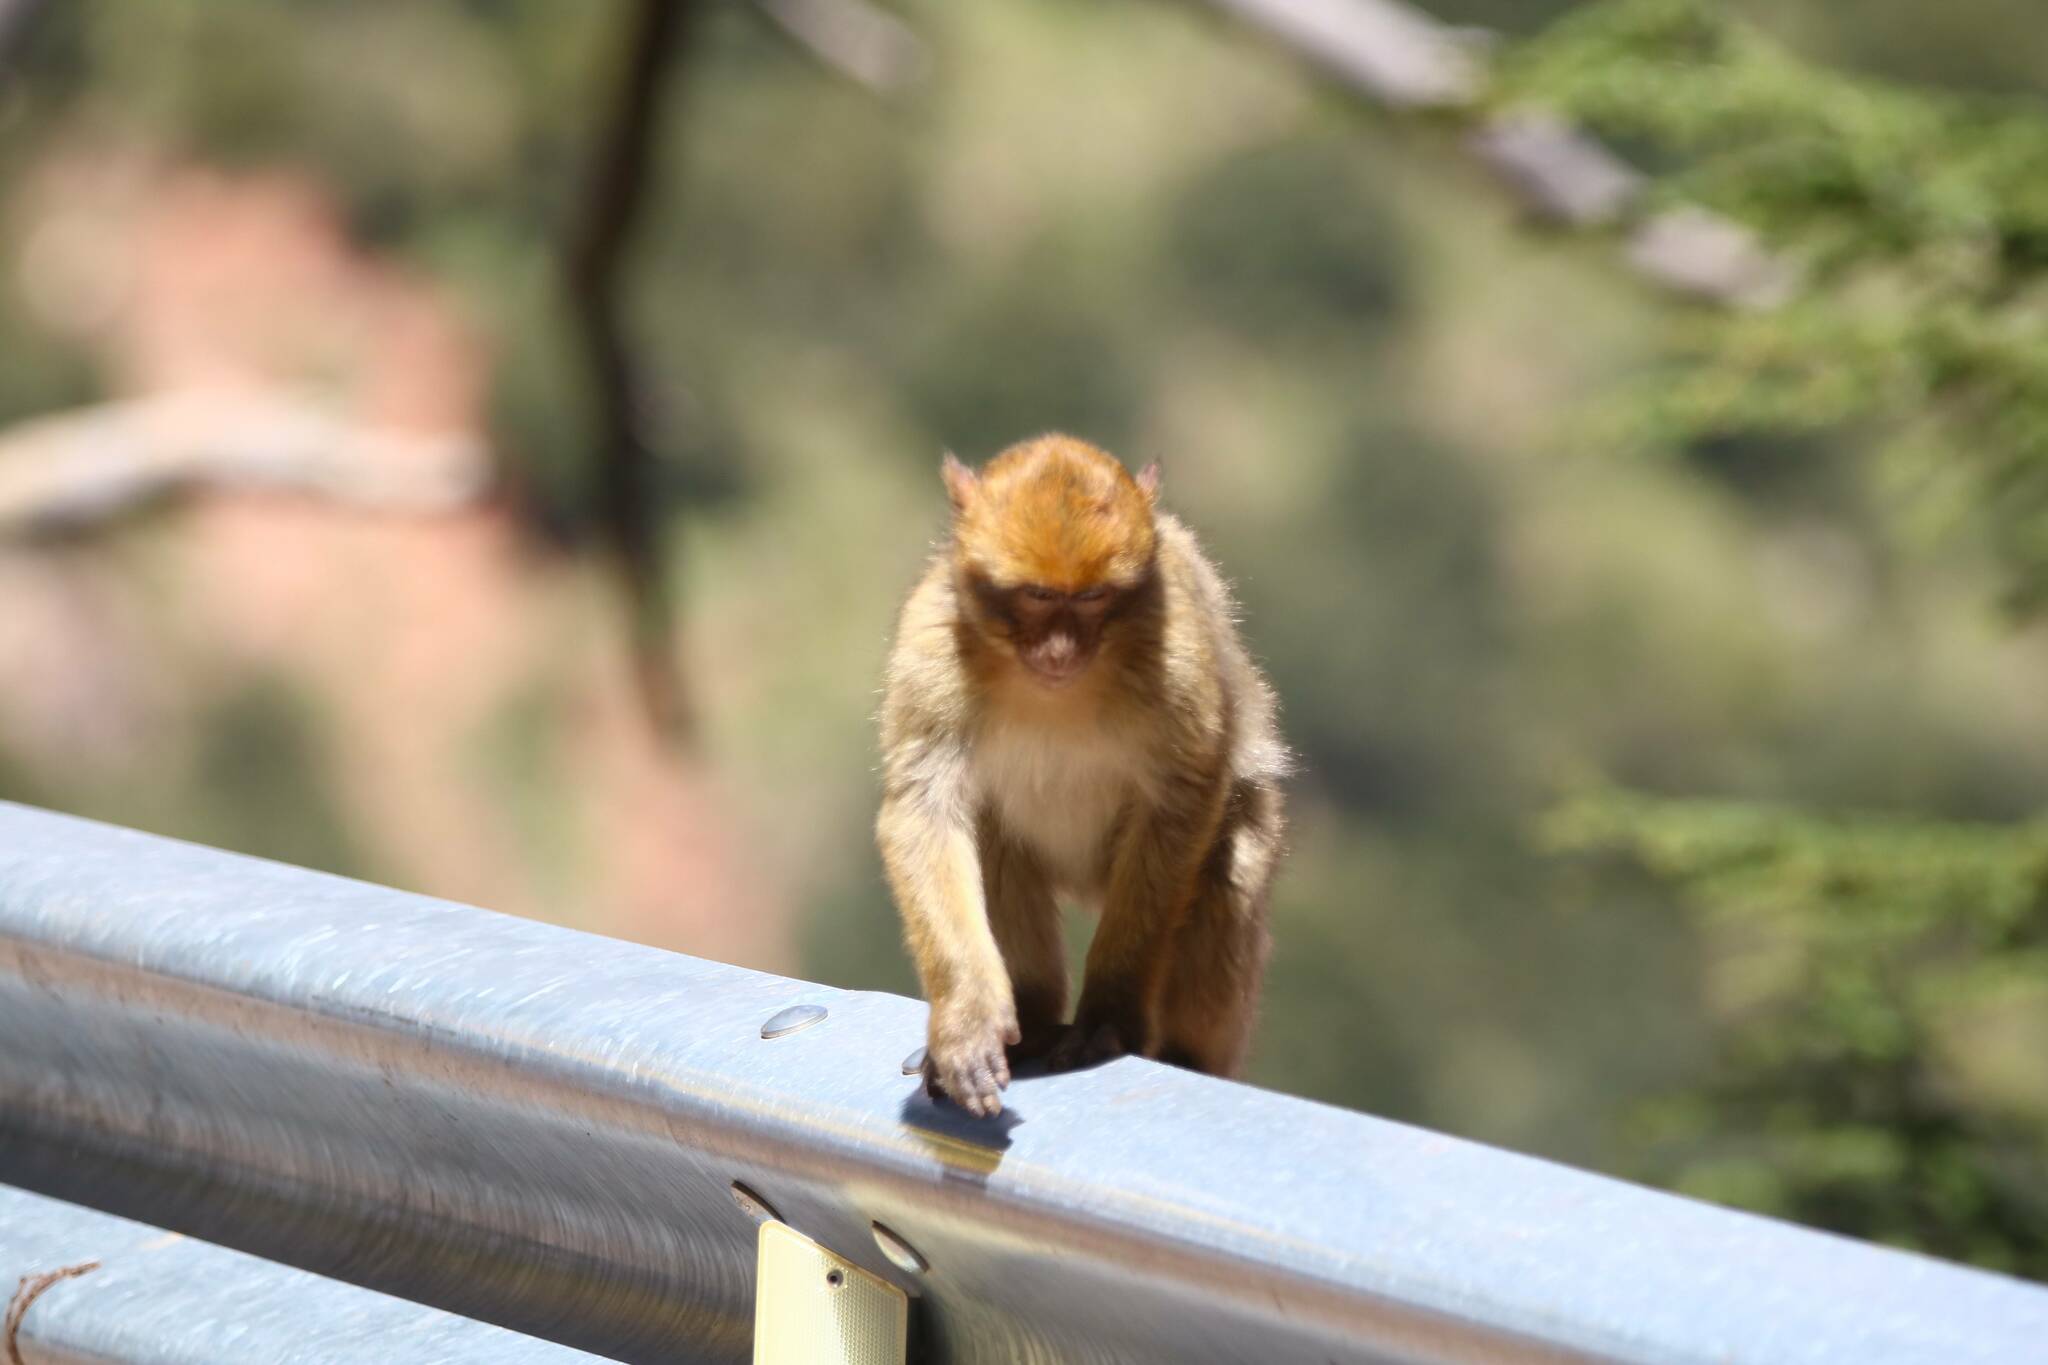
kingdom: Animalia
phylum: Chordata
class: Mammalia
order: Primates
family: Cercopithecidae
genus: Macaca
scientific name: Macaca sylvanus
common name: Barbary macaque
